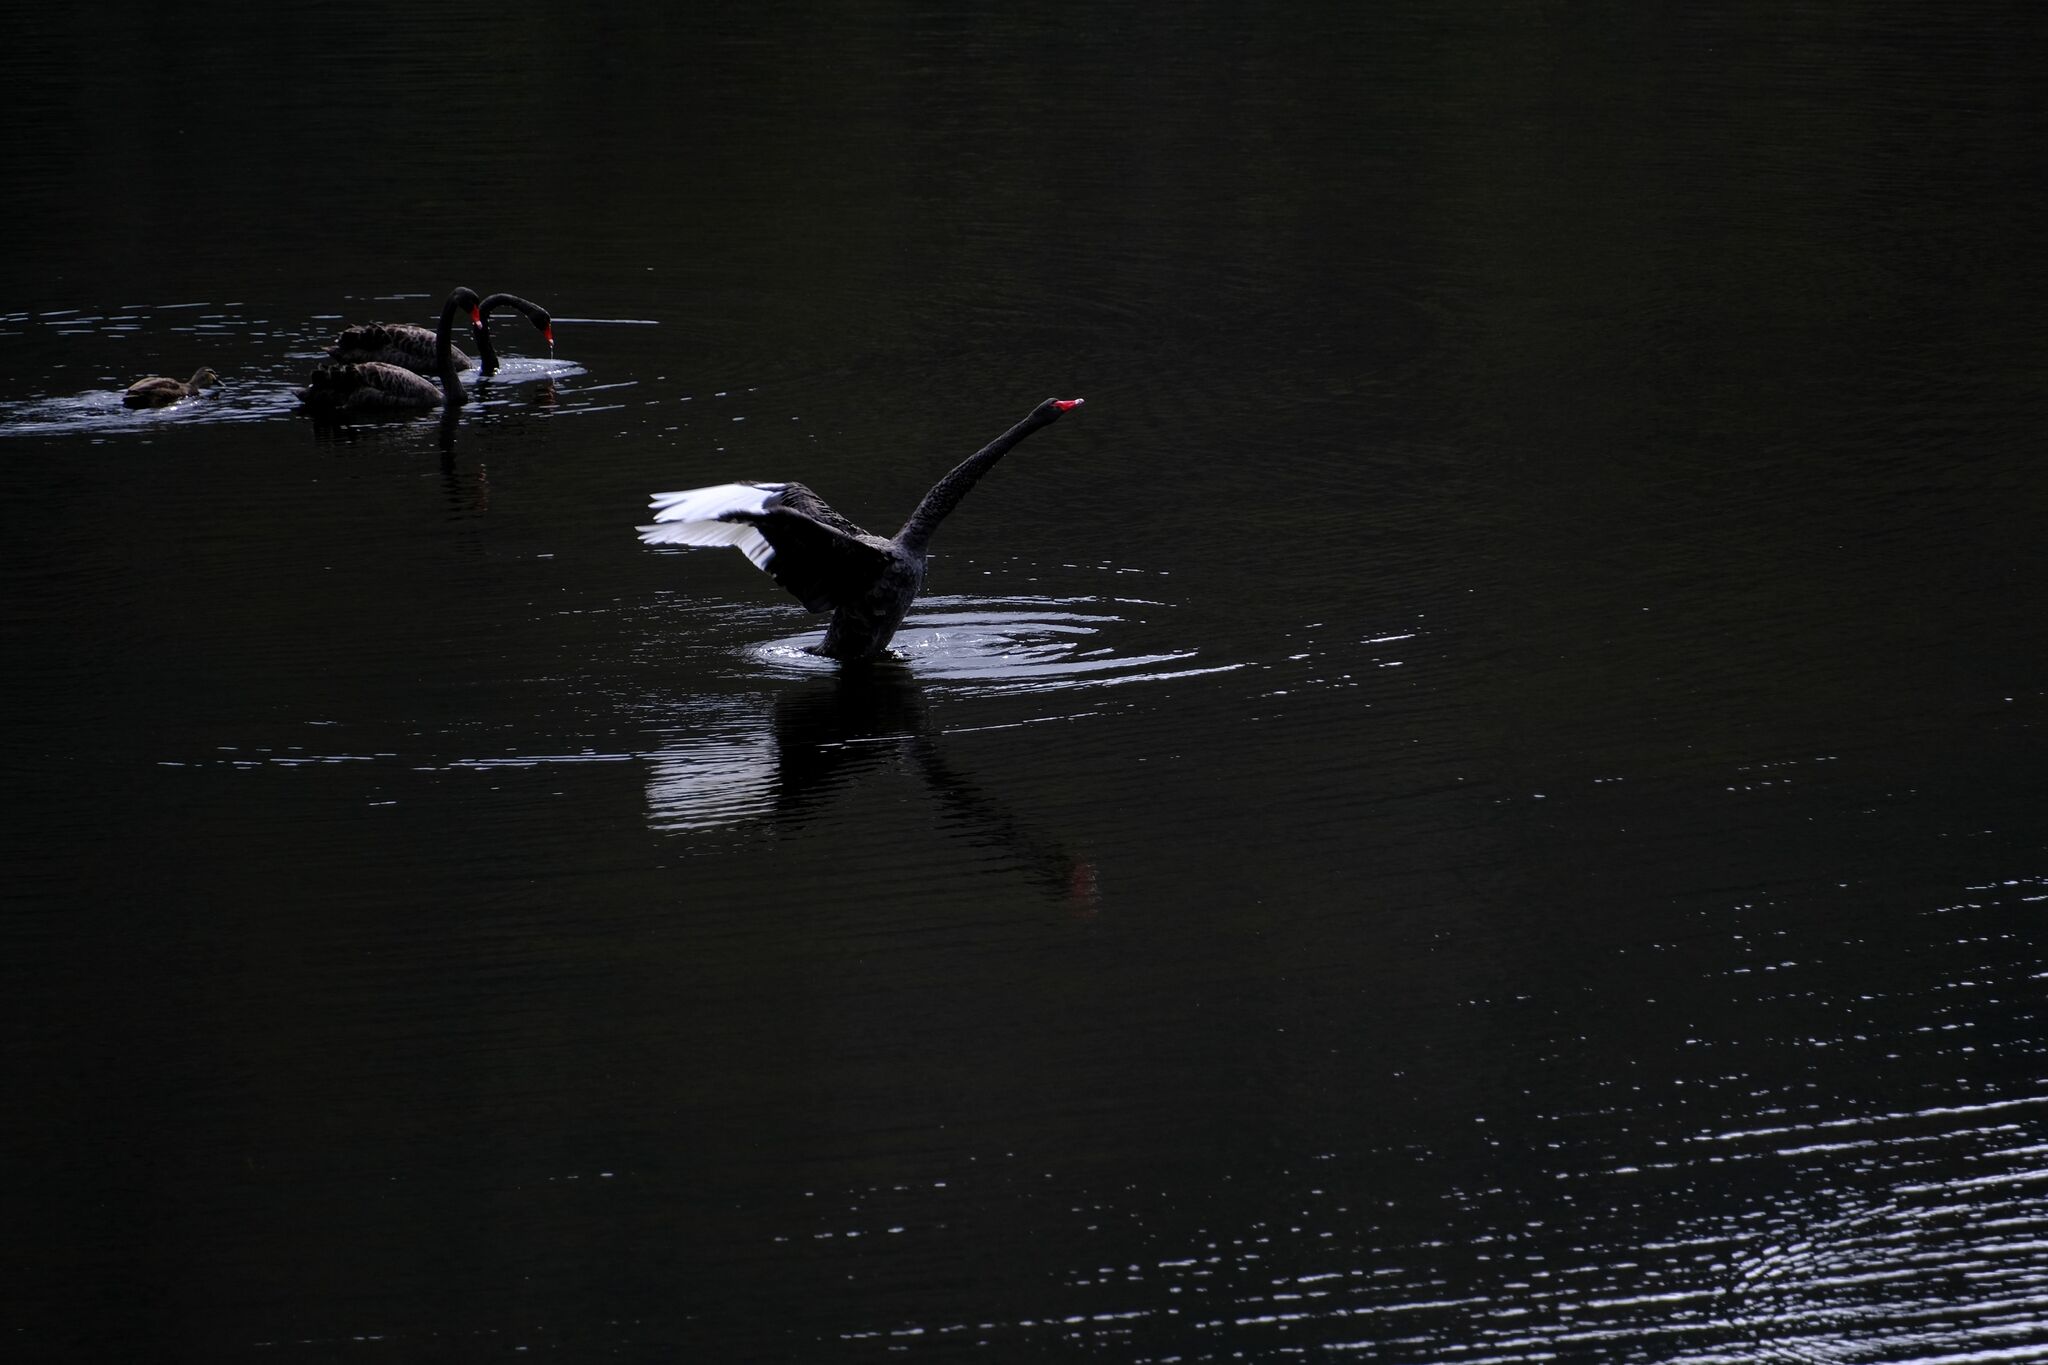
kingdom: Animalia
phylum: Chordata
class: Aves
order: Anseriformes
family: Anatidae
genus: Cygnus
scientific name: Cygnus atratus
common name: Black swan
